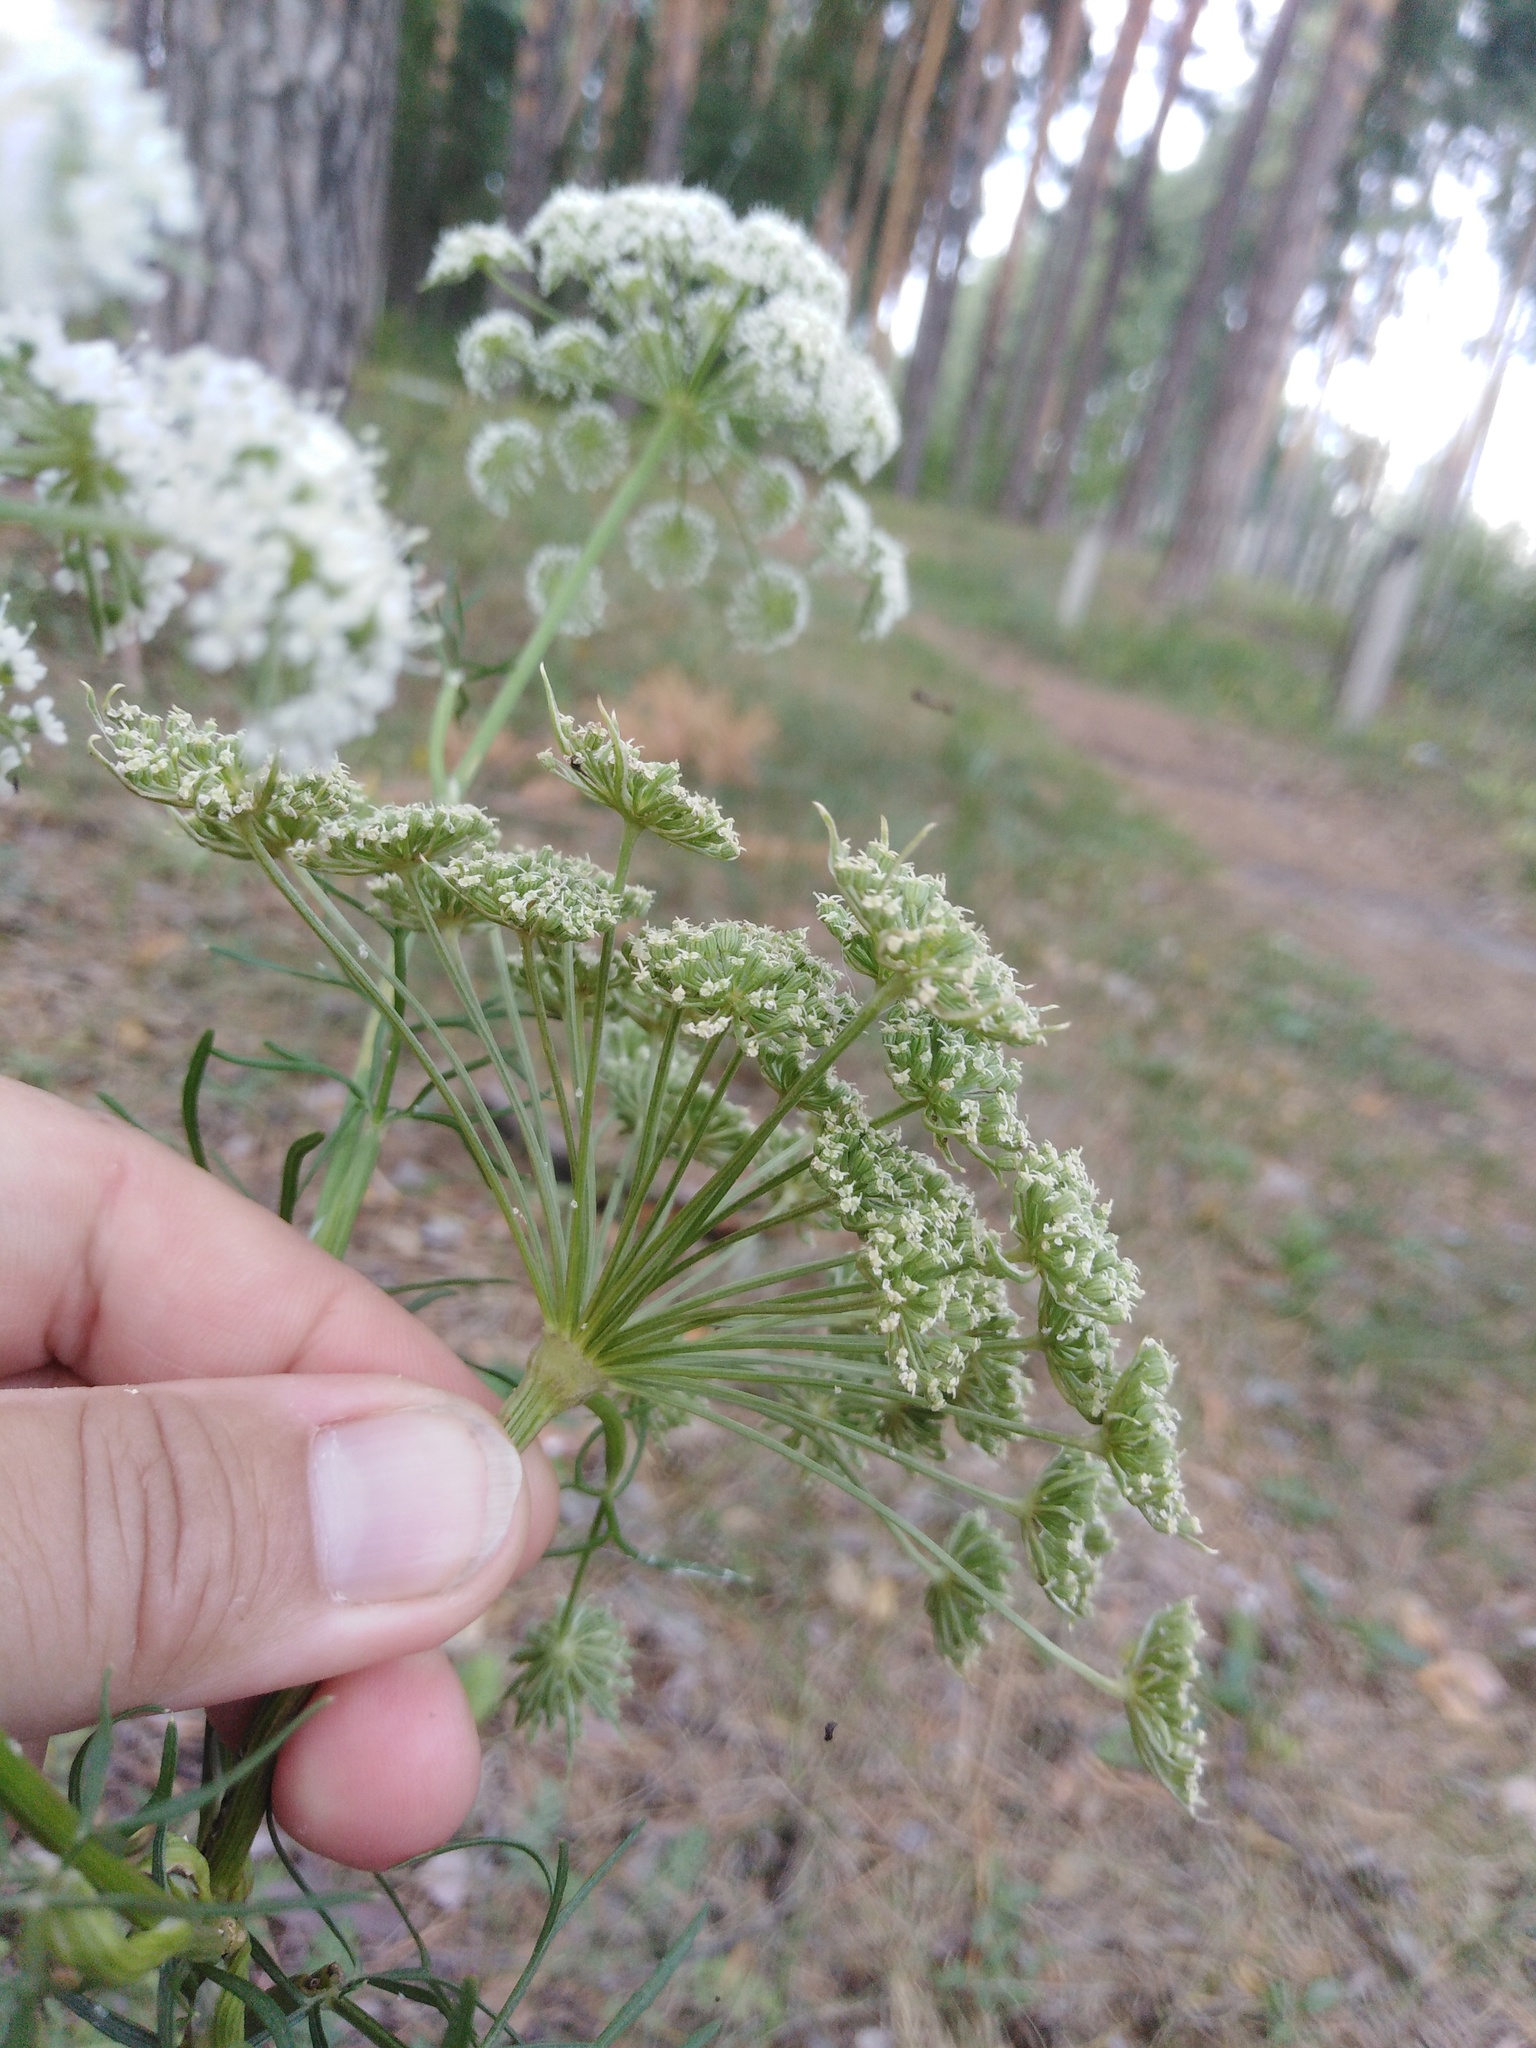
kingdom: Plantae
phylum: Tracheophyta
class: Magnoliopsida
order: Apiales
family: Apiaceae
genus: Seseli
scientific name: Seseli annuum
